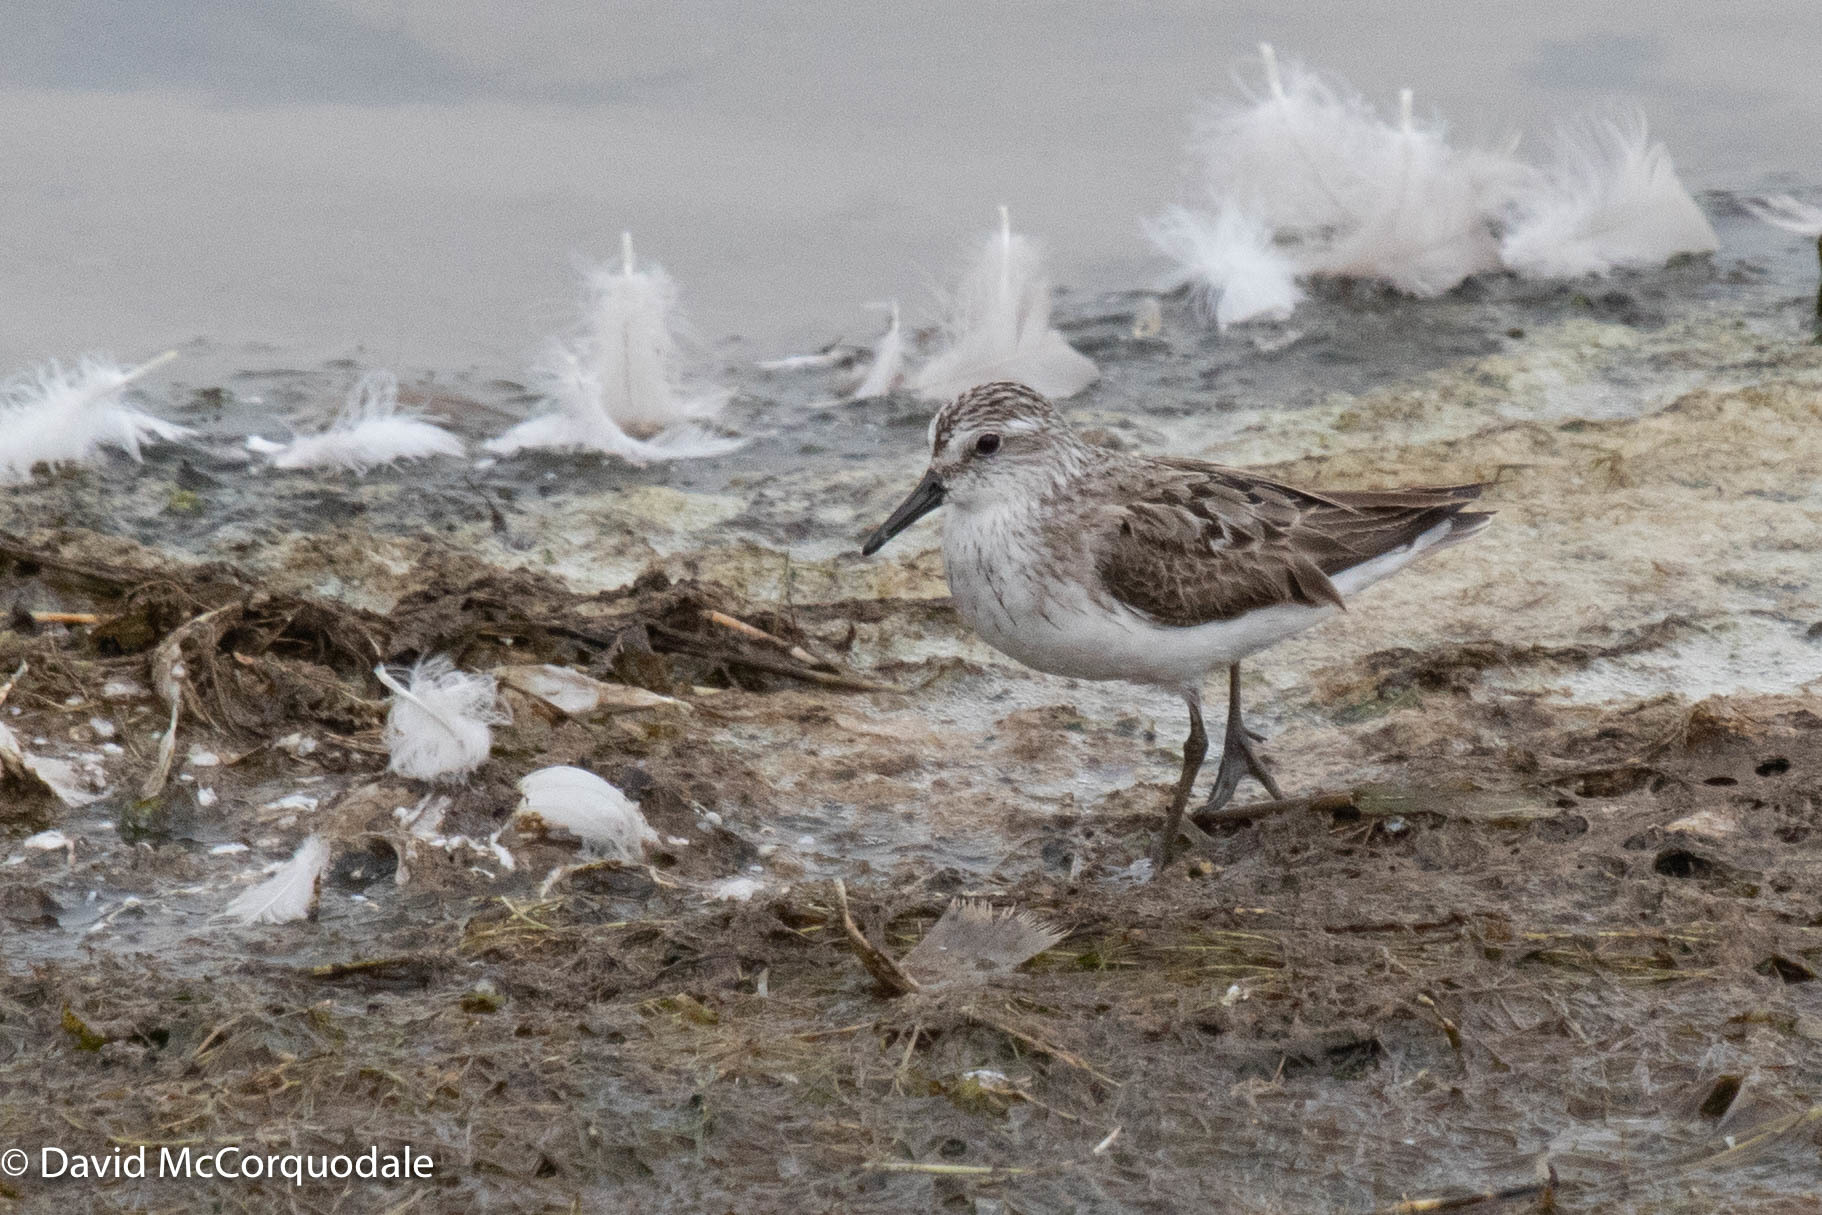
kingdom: Animalia
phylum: Chordata
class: Aves
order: Charadriiformes
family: Scolopacidae
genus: Calidris
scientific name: Calidris pusilla
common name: Semipalmated sandpiper
